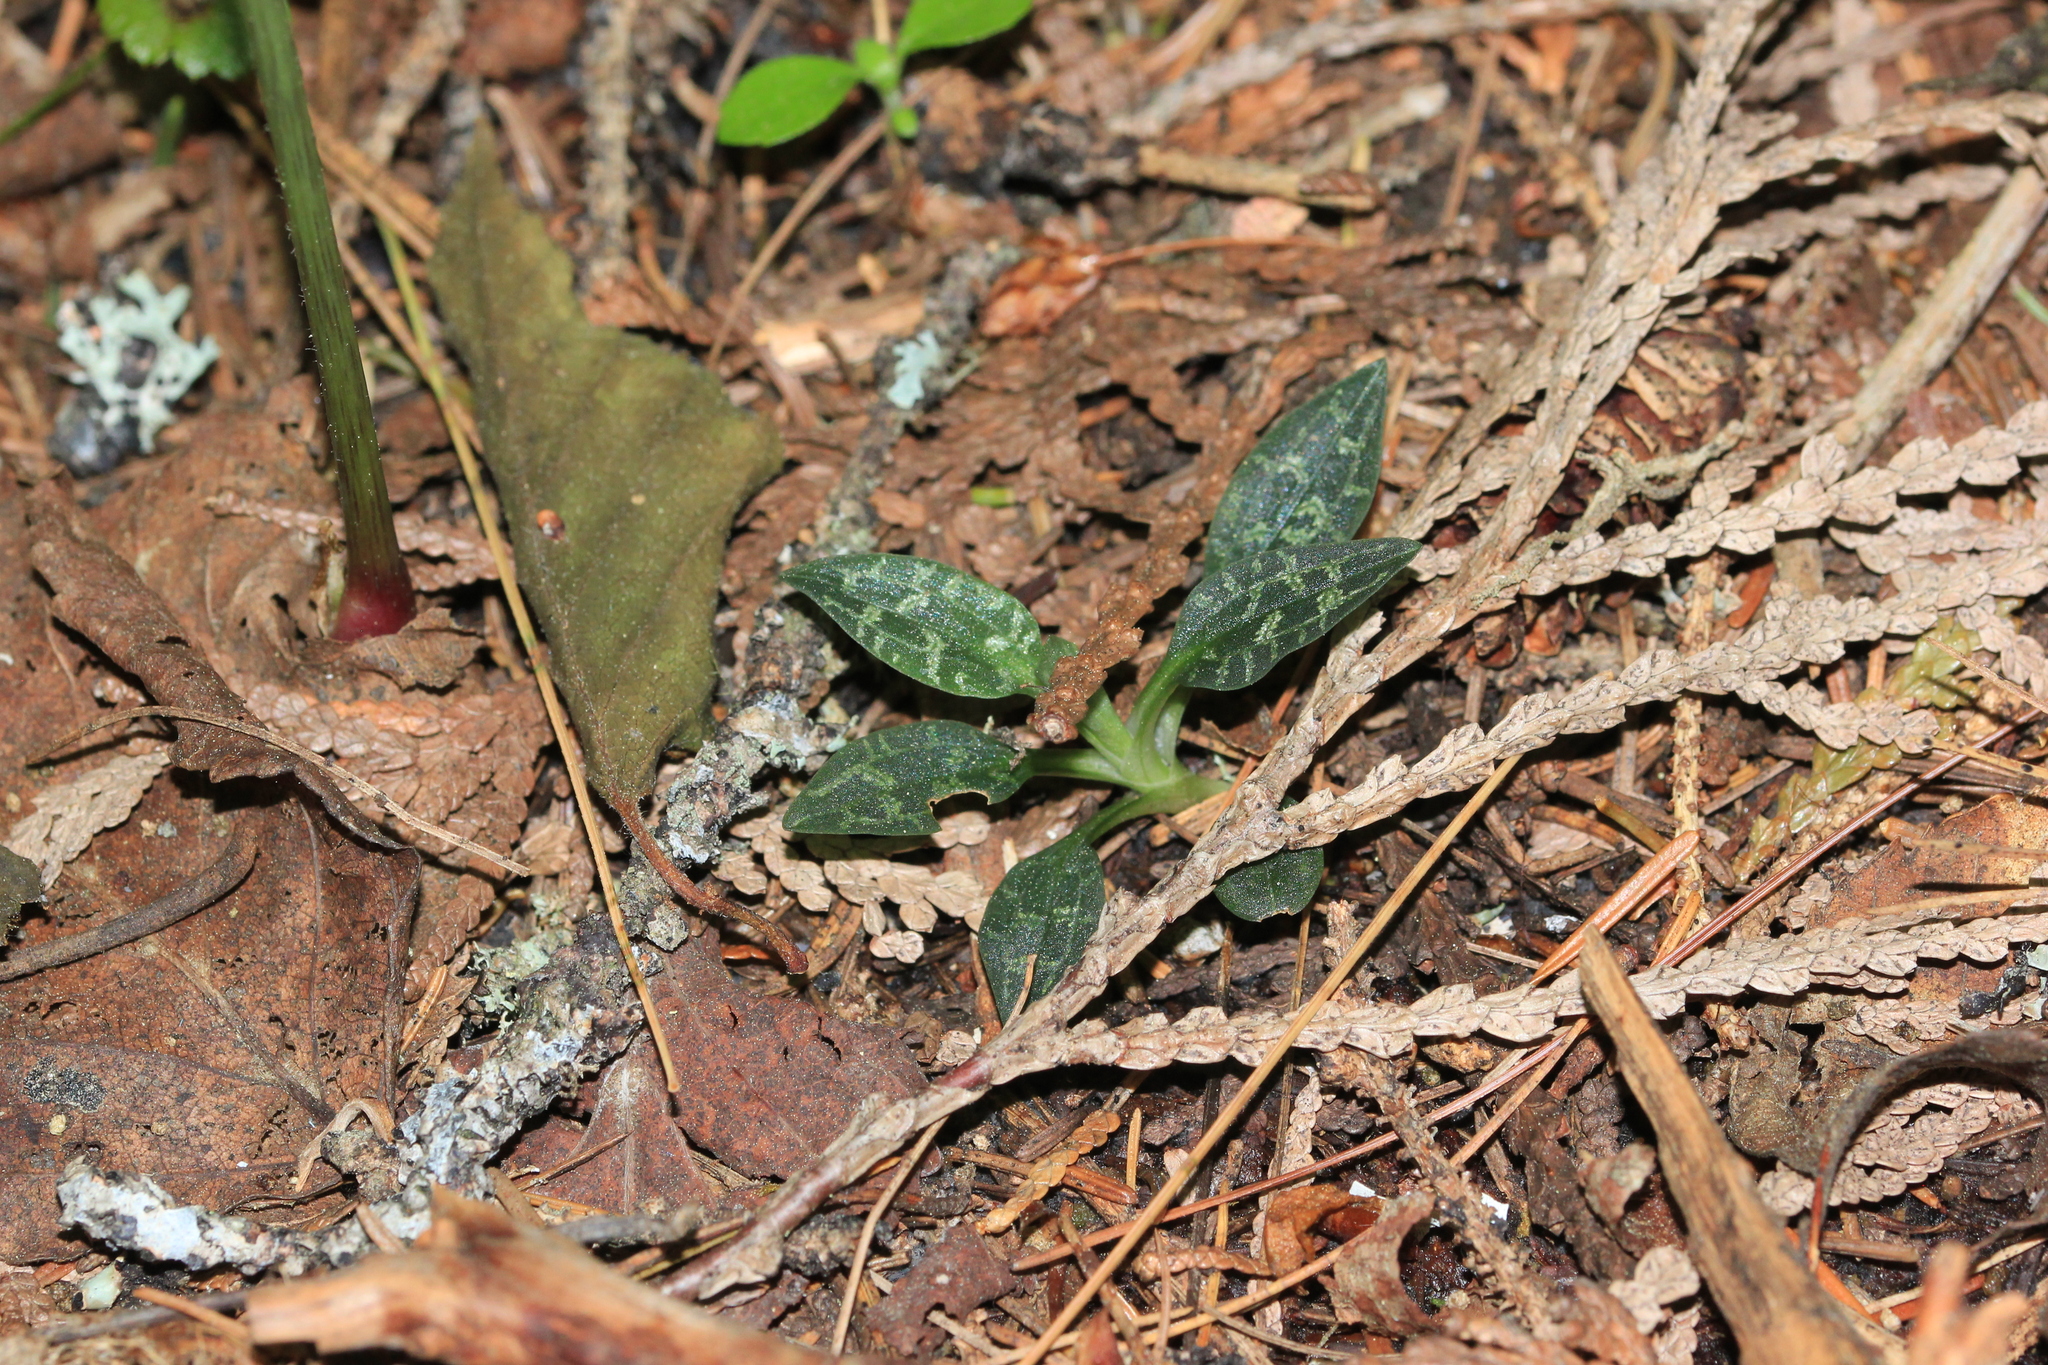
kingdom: Plantae
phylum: Tracheophyta
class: Liliopsida
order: Asparagales
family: Orchidaceae
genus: Goodyera
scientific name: Goodyera repens
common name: Creeping lady's-tresses
